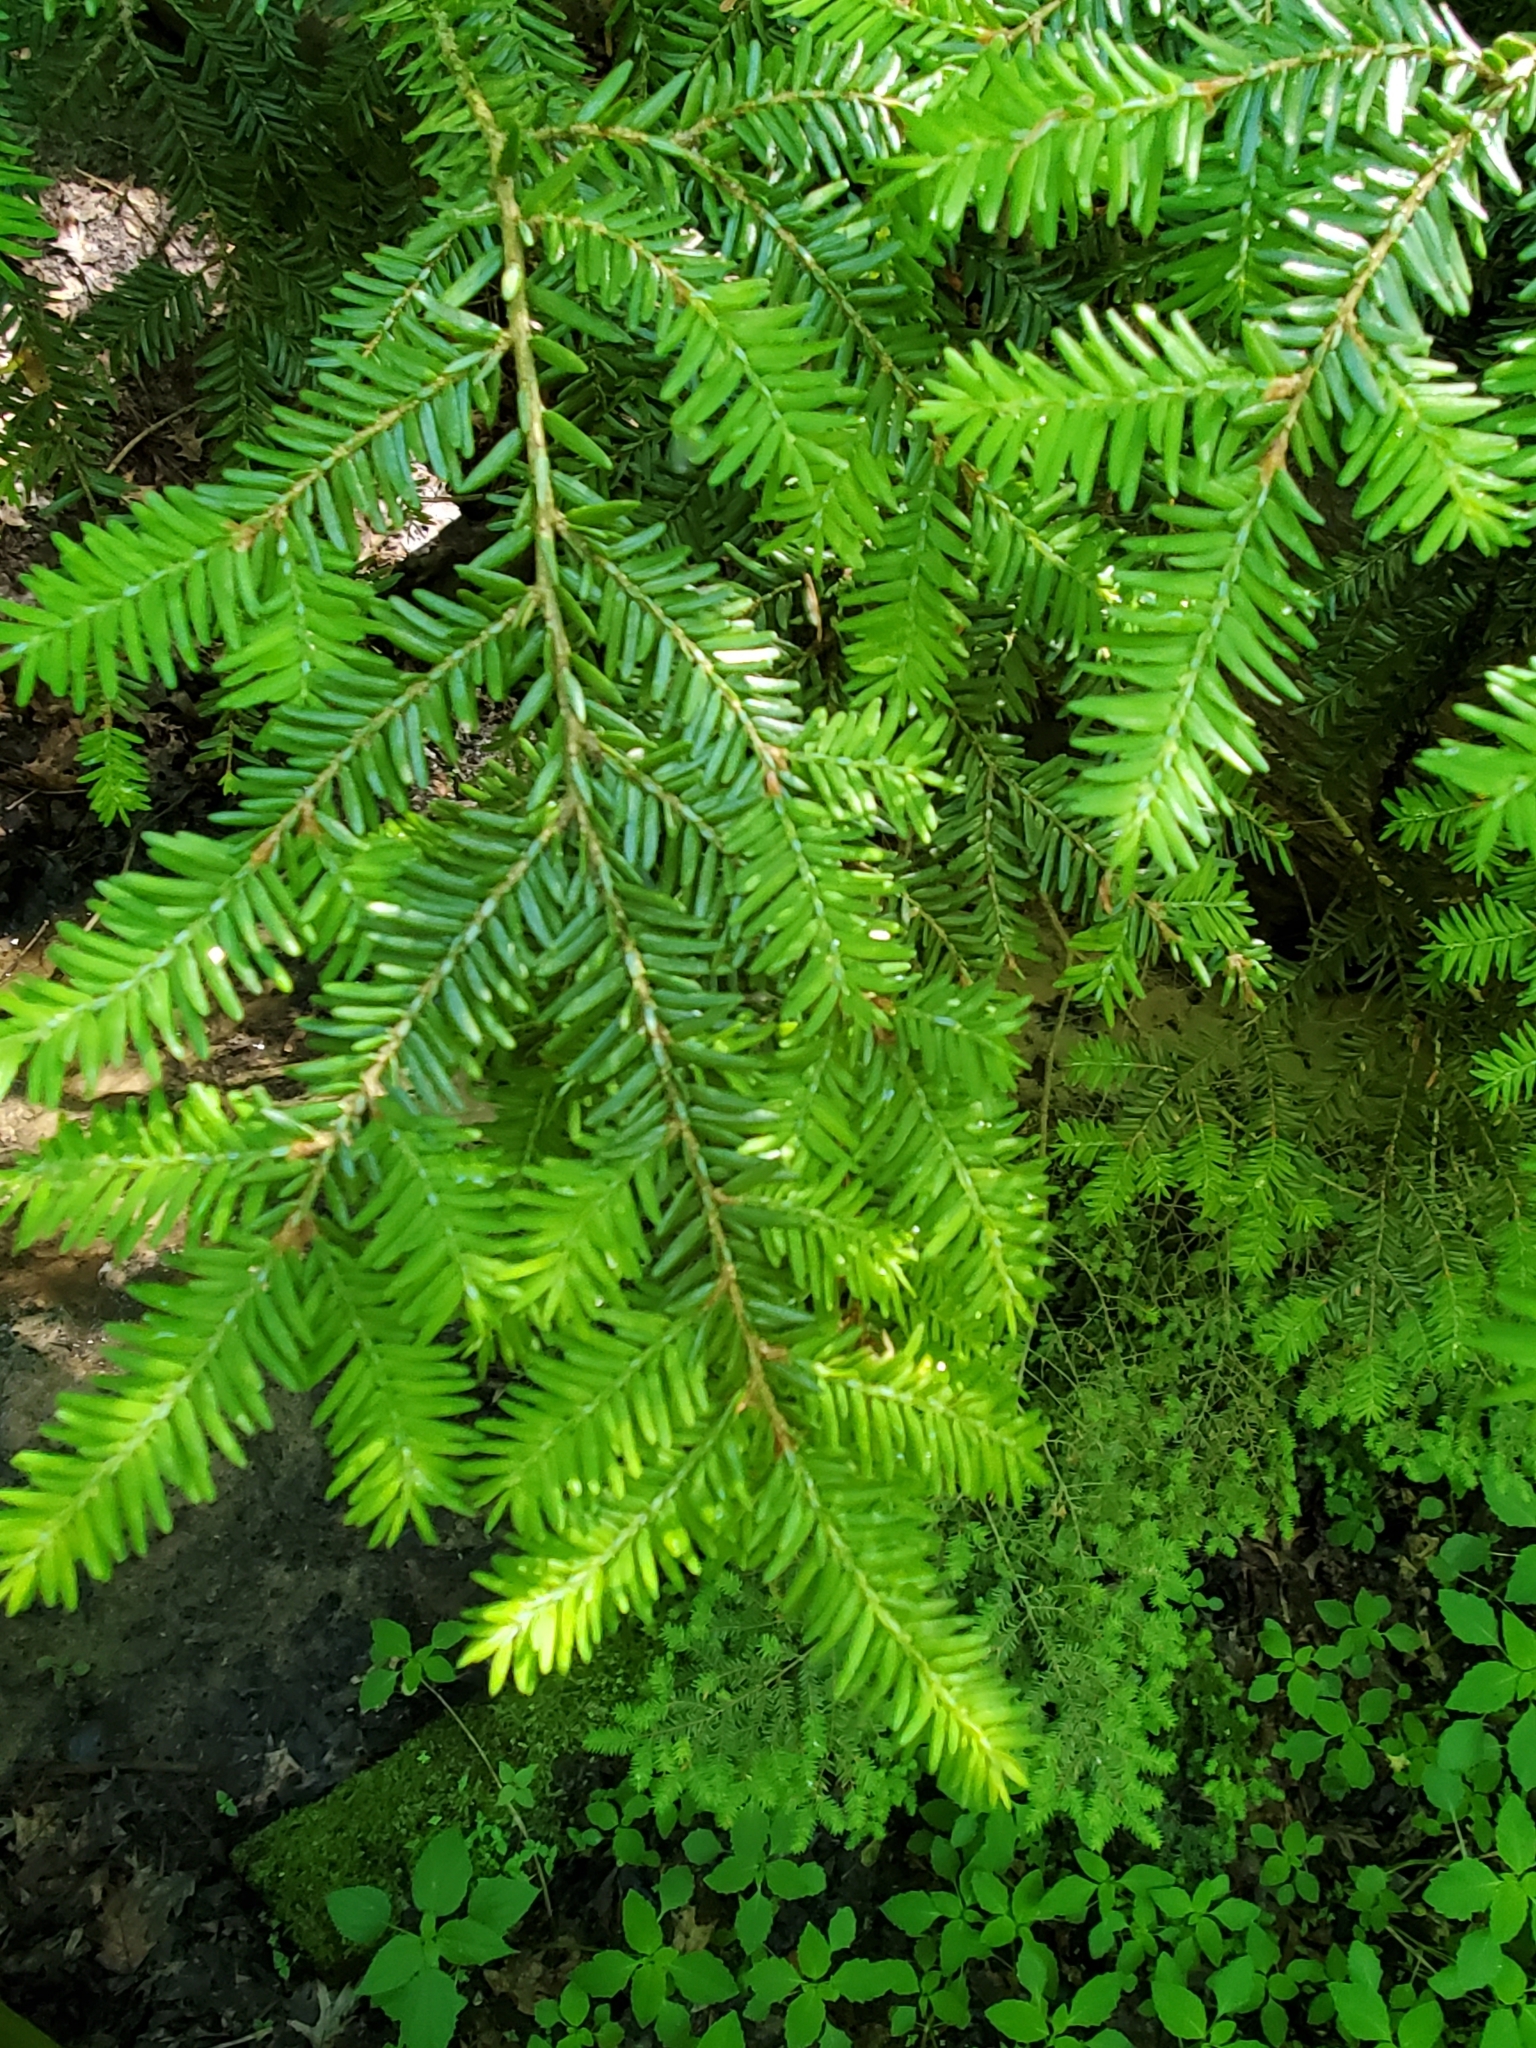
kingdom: Plantae
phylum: Tracheophyta
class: Pinopsida
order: Pinales
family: Taxaceae
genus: Taxus
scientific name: Taxus baccata
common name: Yew
